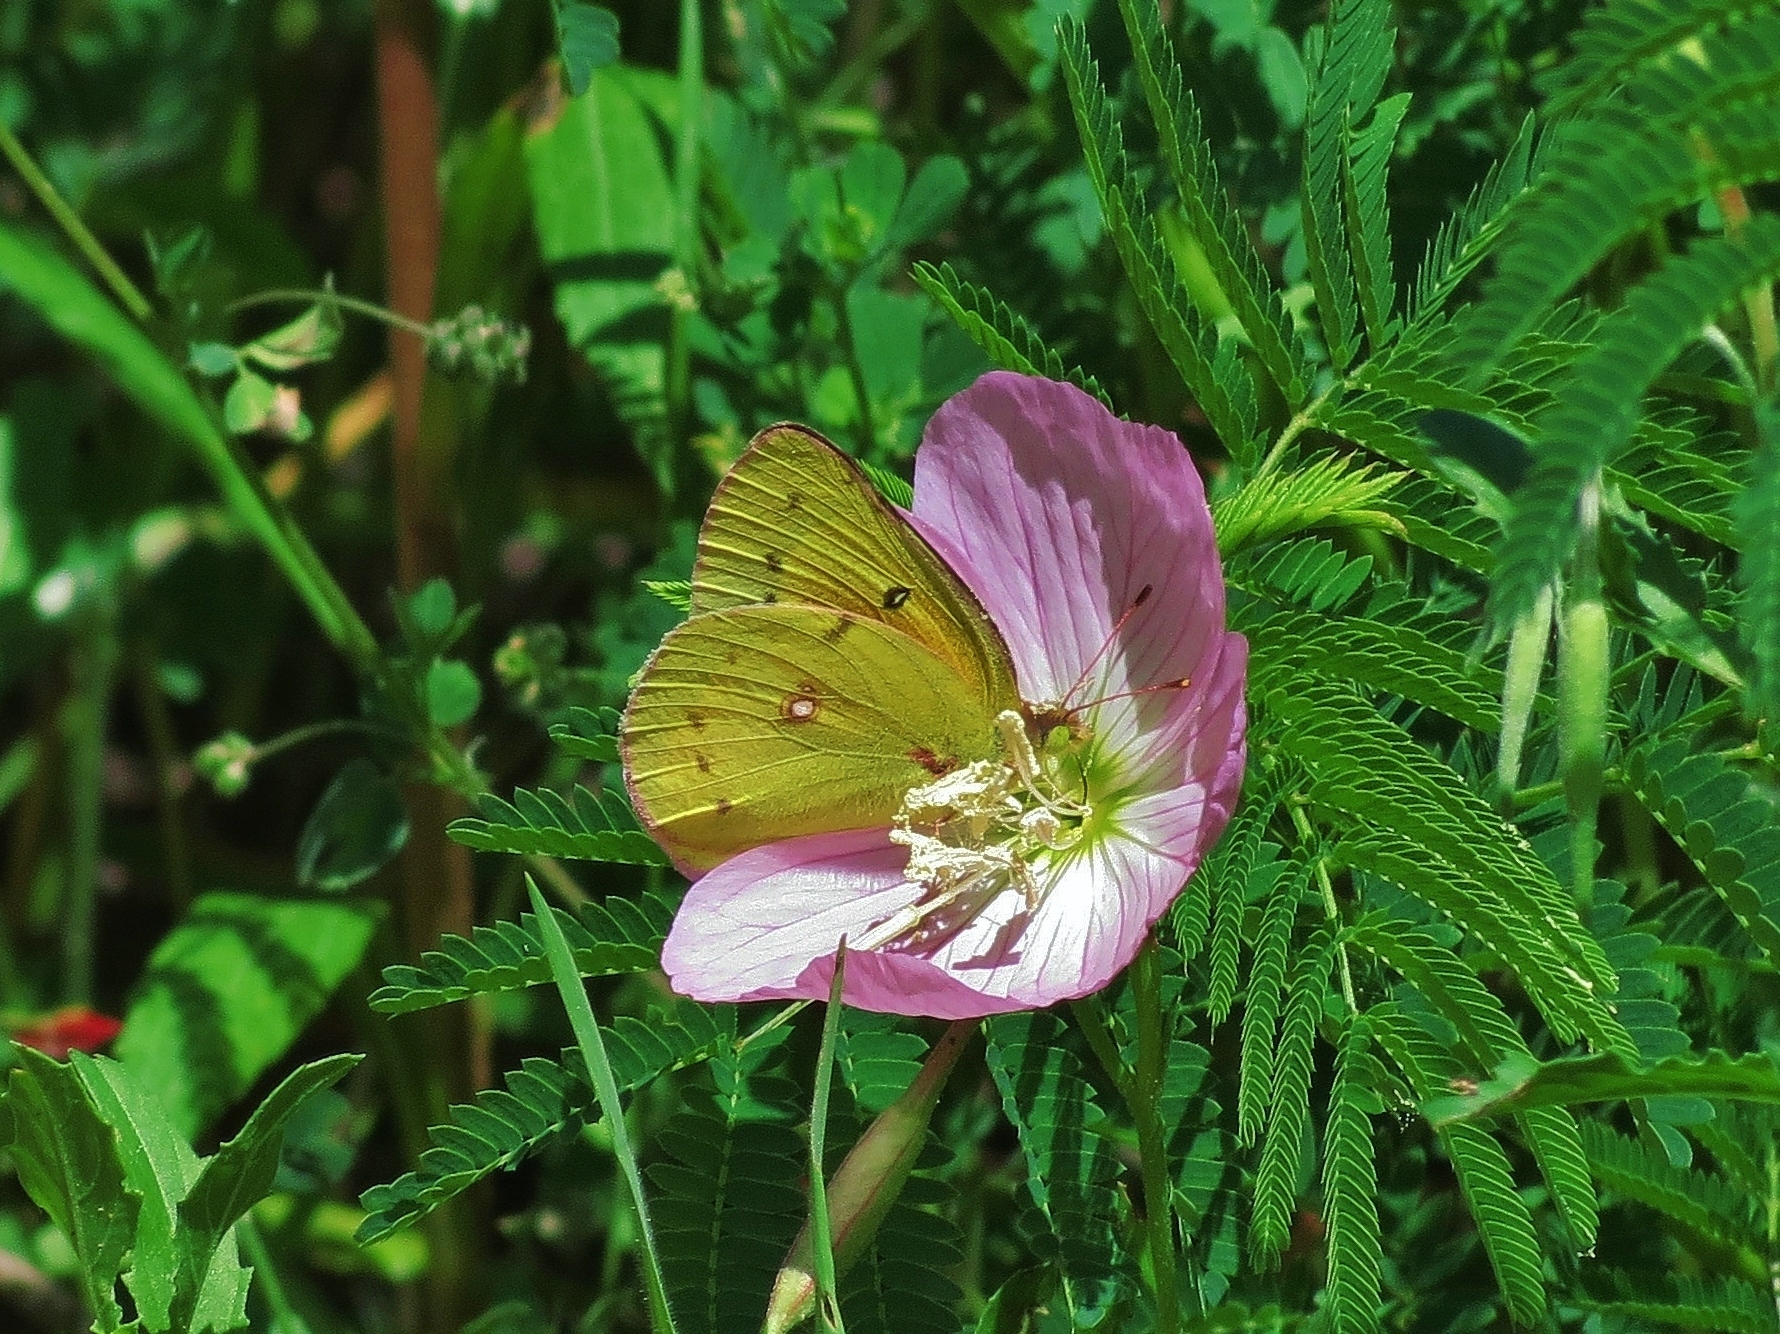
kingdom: Animalia
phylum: Arthropoda
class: Insecta
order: Lepidoptera
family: Pieridae
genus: Colias
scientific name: Colias eurytheme
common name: Alfalfa butterfly
